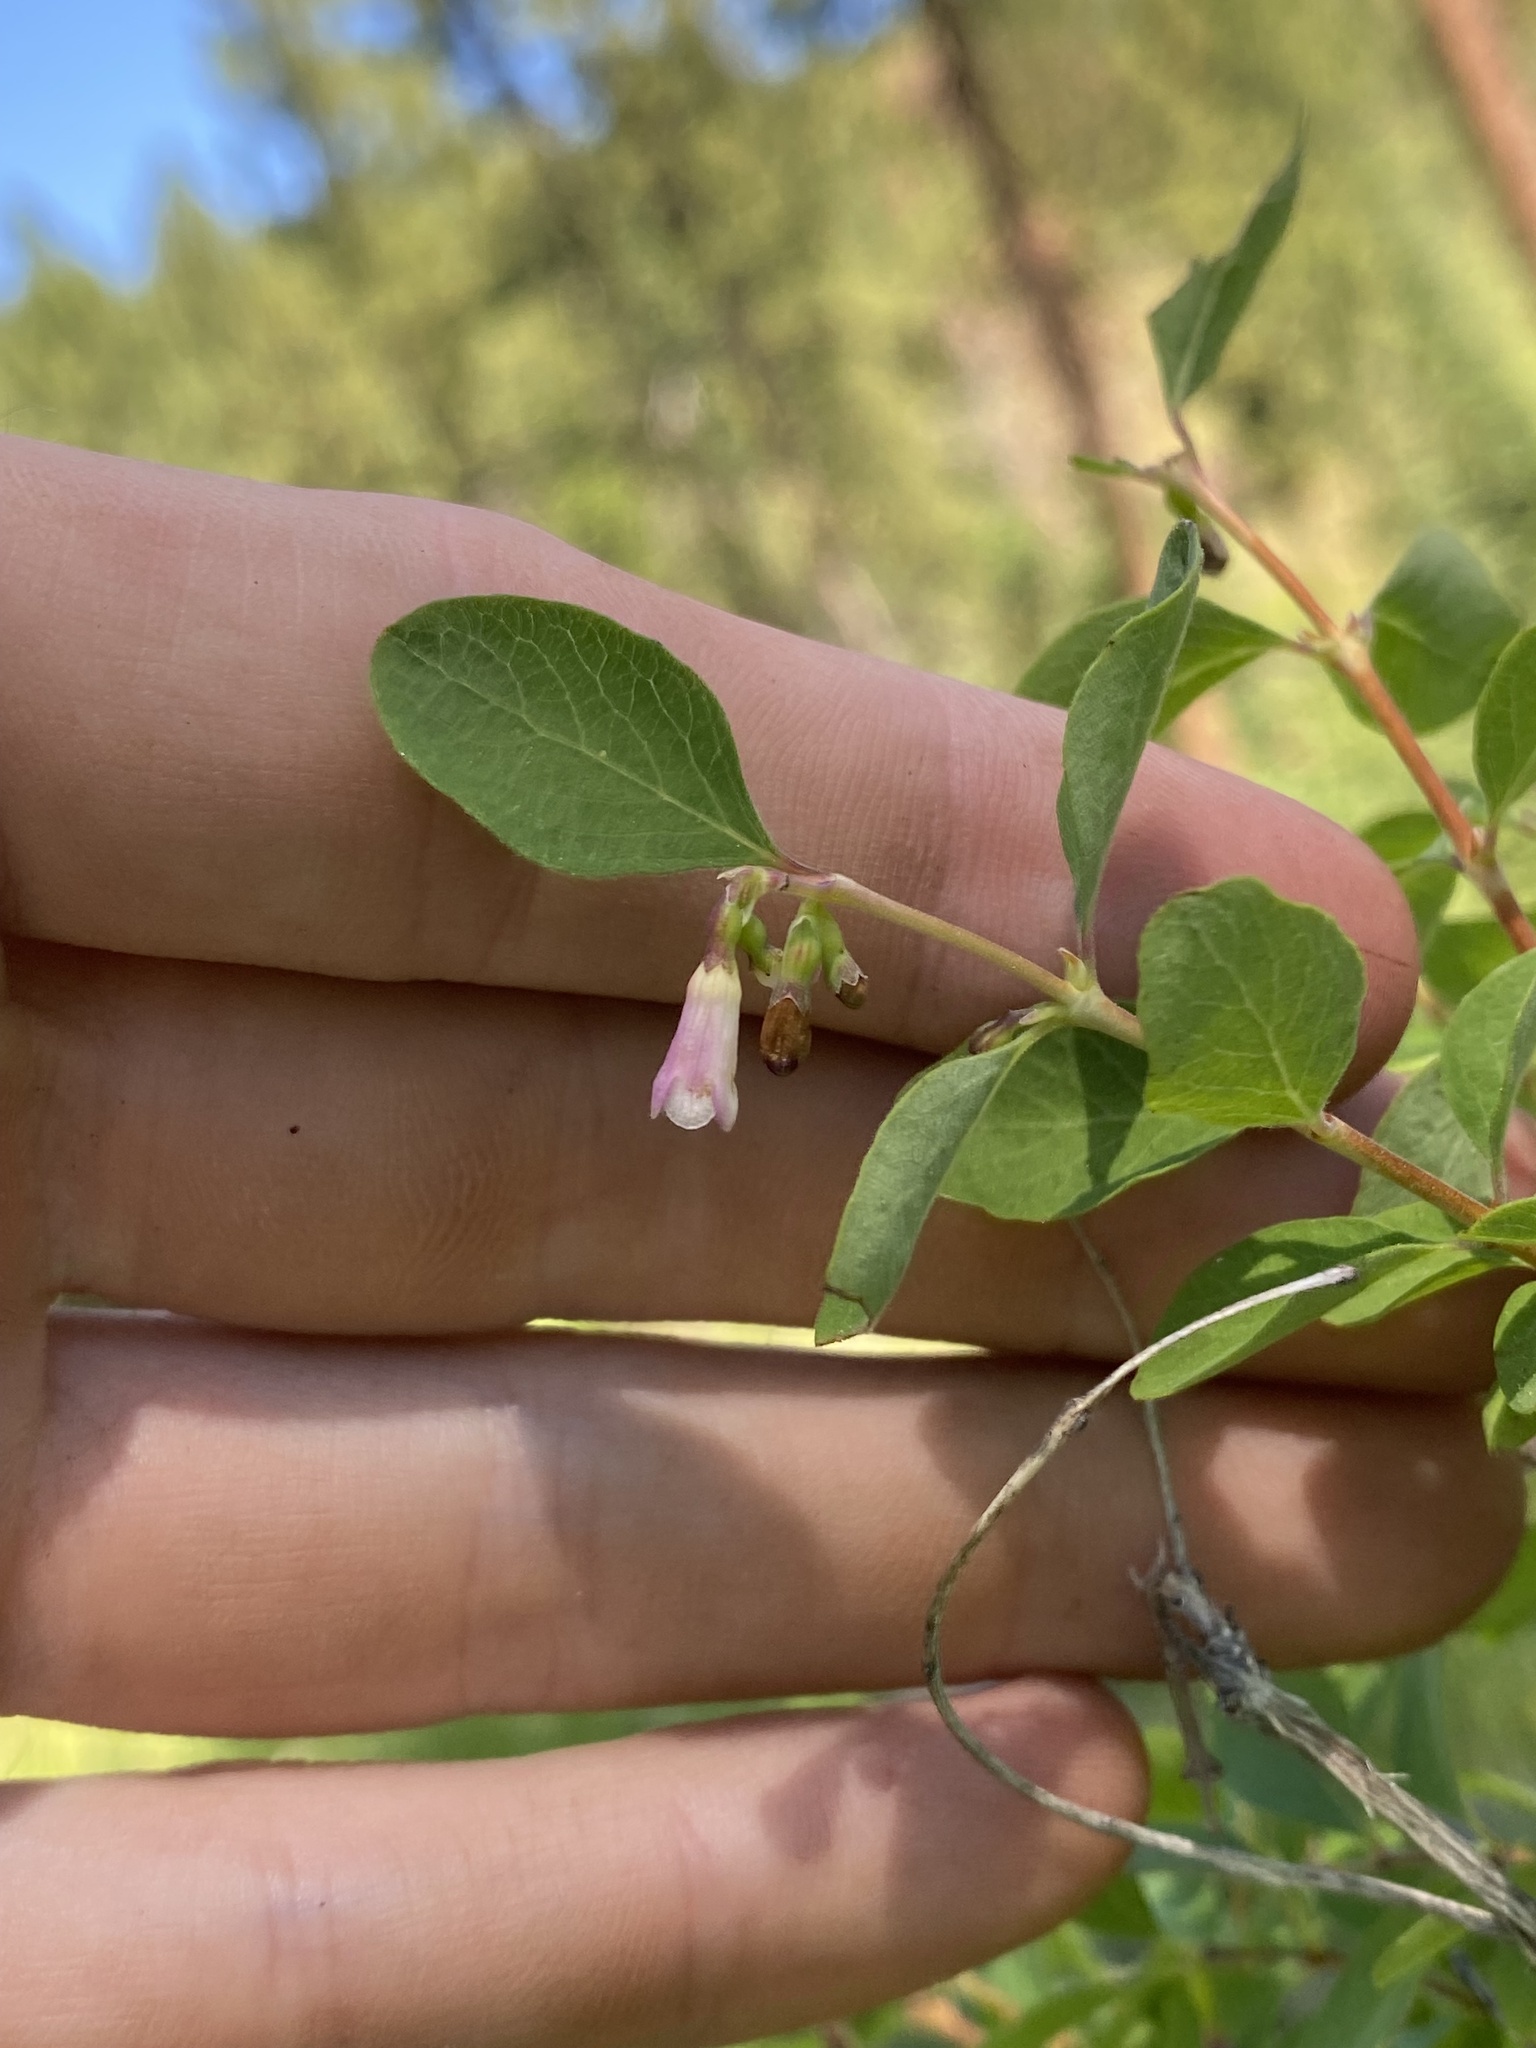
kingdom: Plantae
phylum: Tracheophyta
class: Magnoliopsida
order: Dipsacales
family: Caprifoliaceae
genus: Symphoricarpos
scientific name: Symphoricarpos rotundifolius
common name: Round-leaved snowberry
